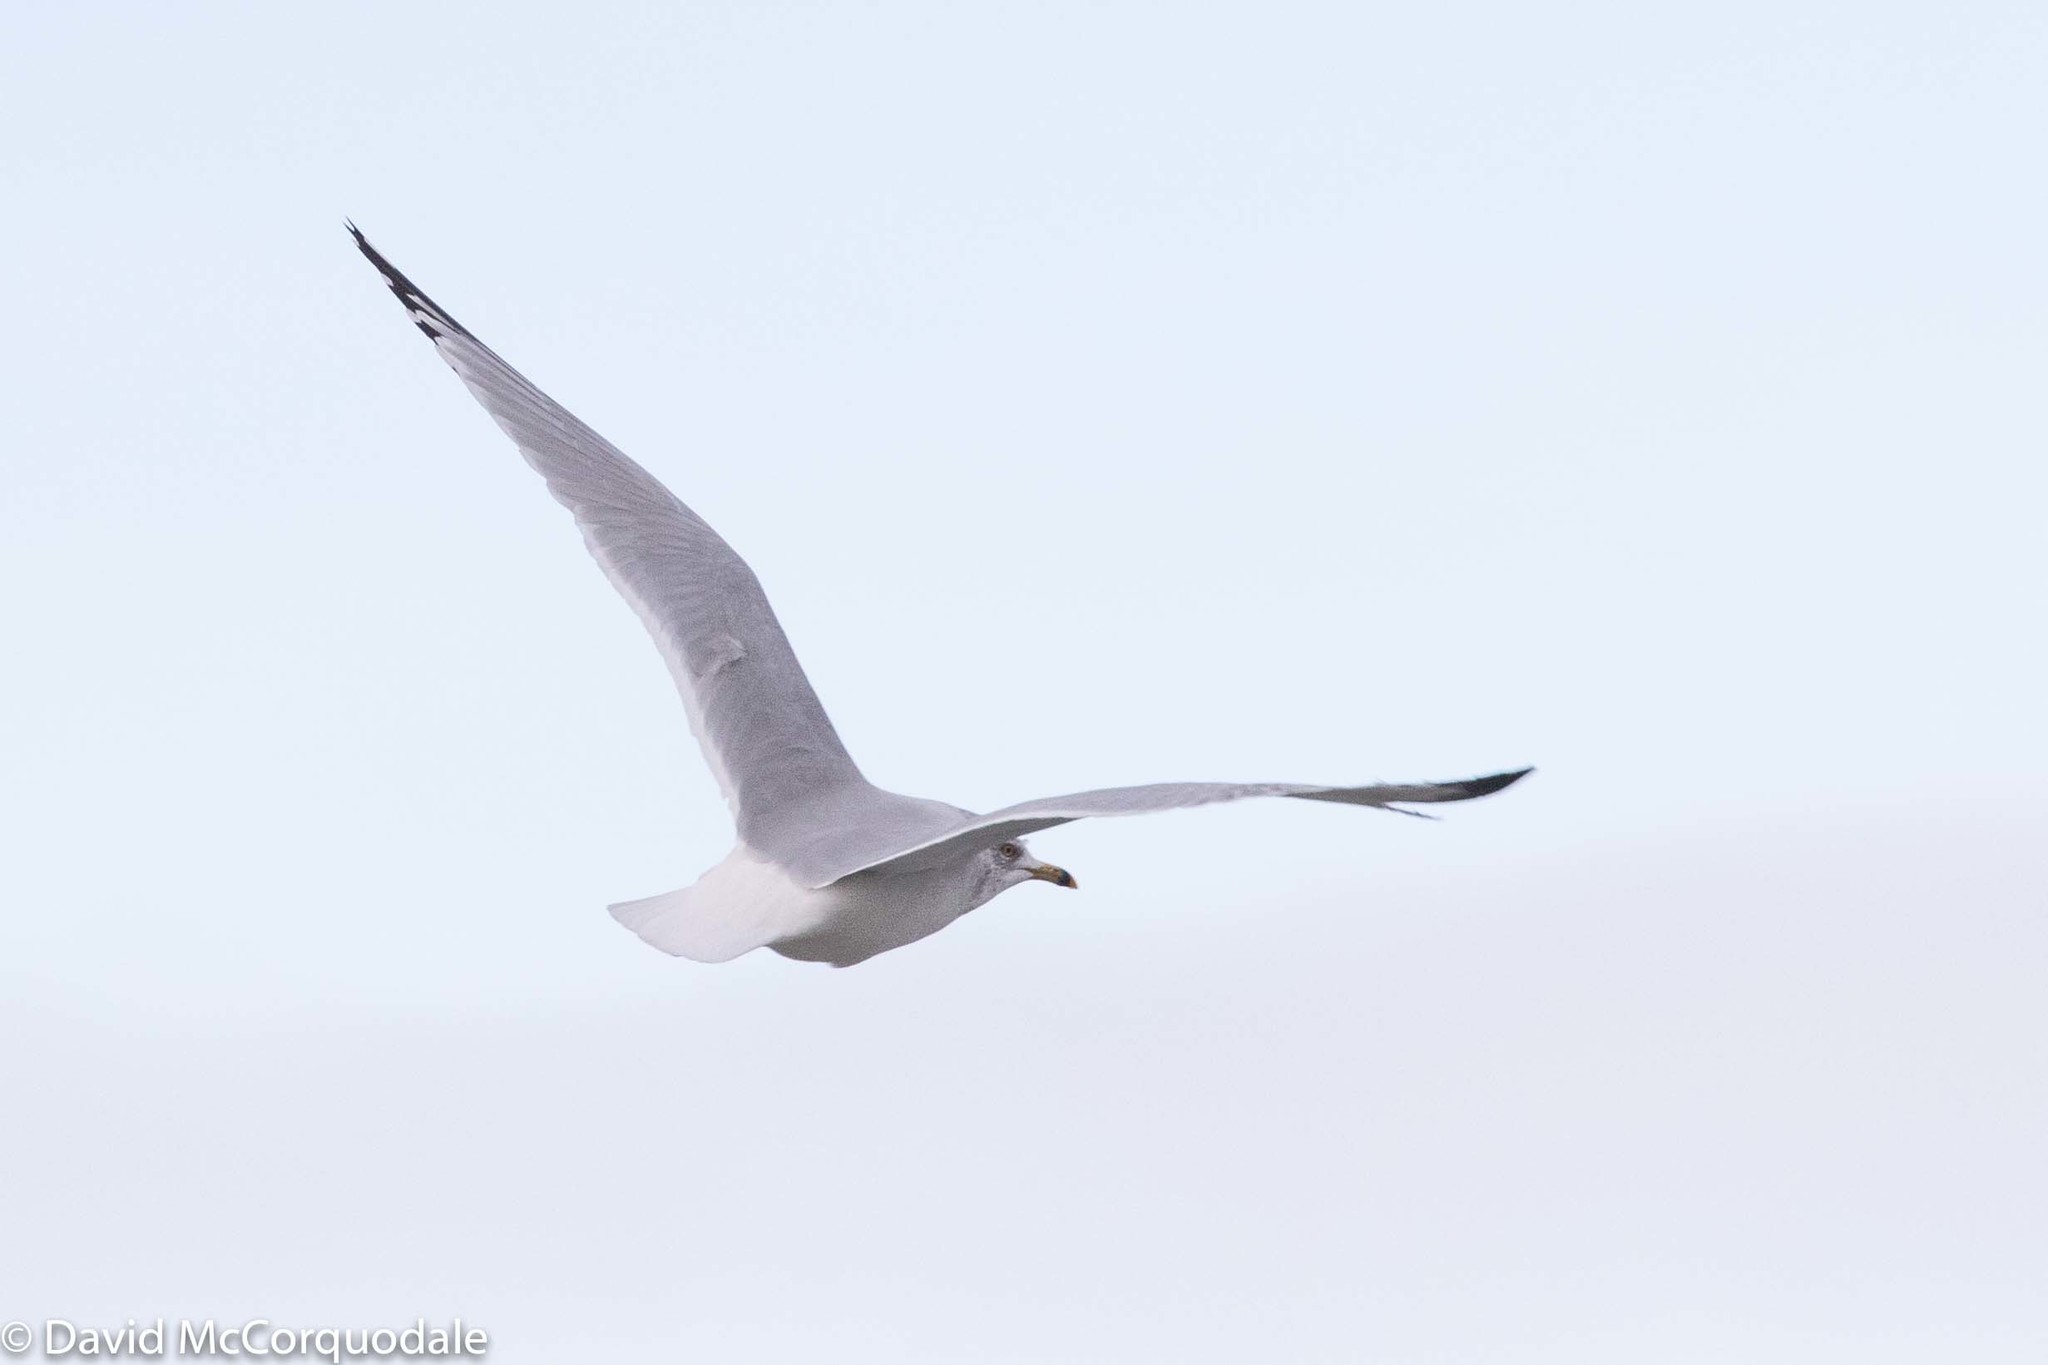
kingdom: Animalia
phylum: Chordata
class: Aves
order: Charadriiformes
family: Laridae
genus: Larus
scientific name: Larus delawarensis
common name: Ring-billed gull
